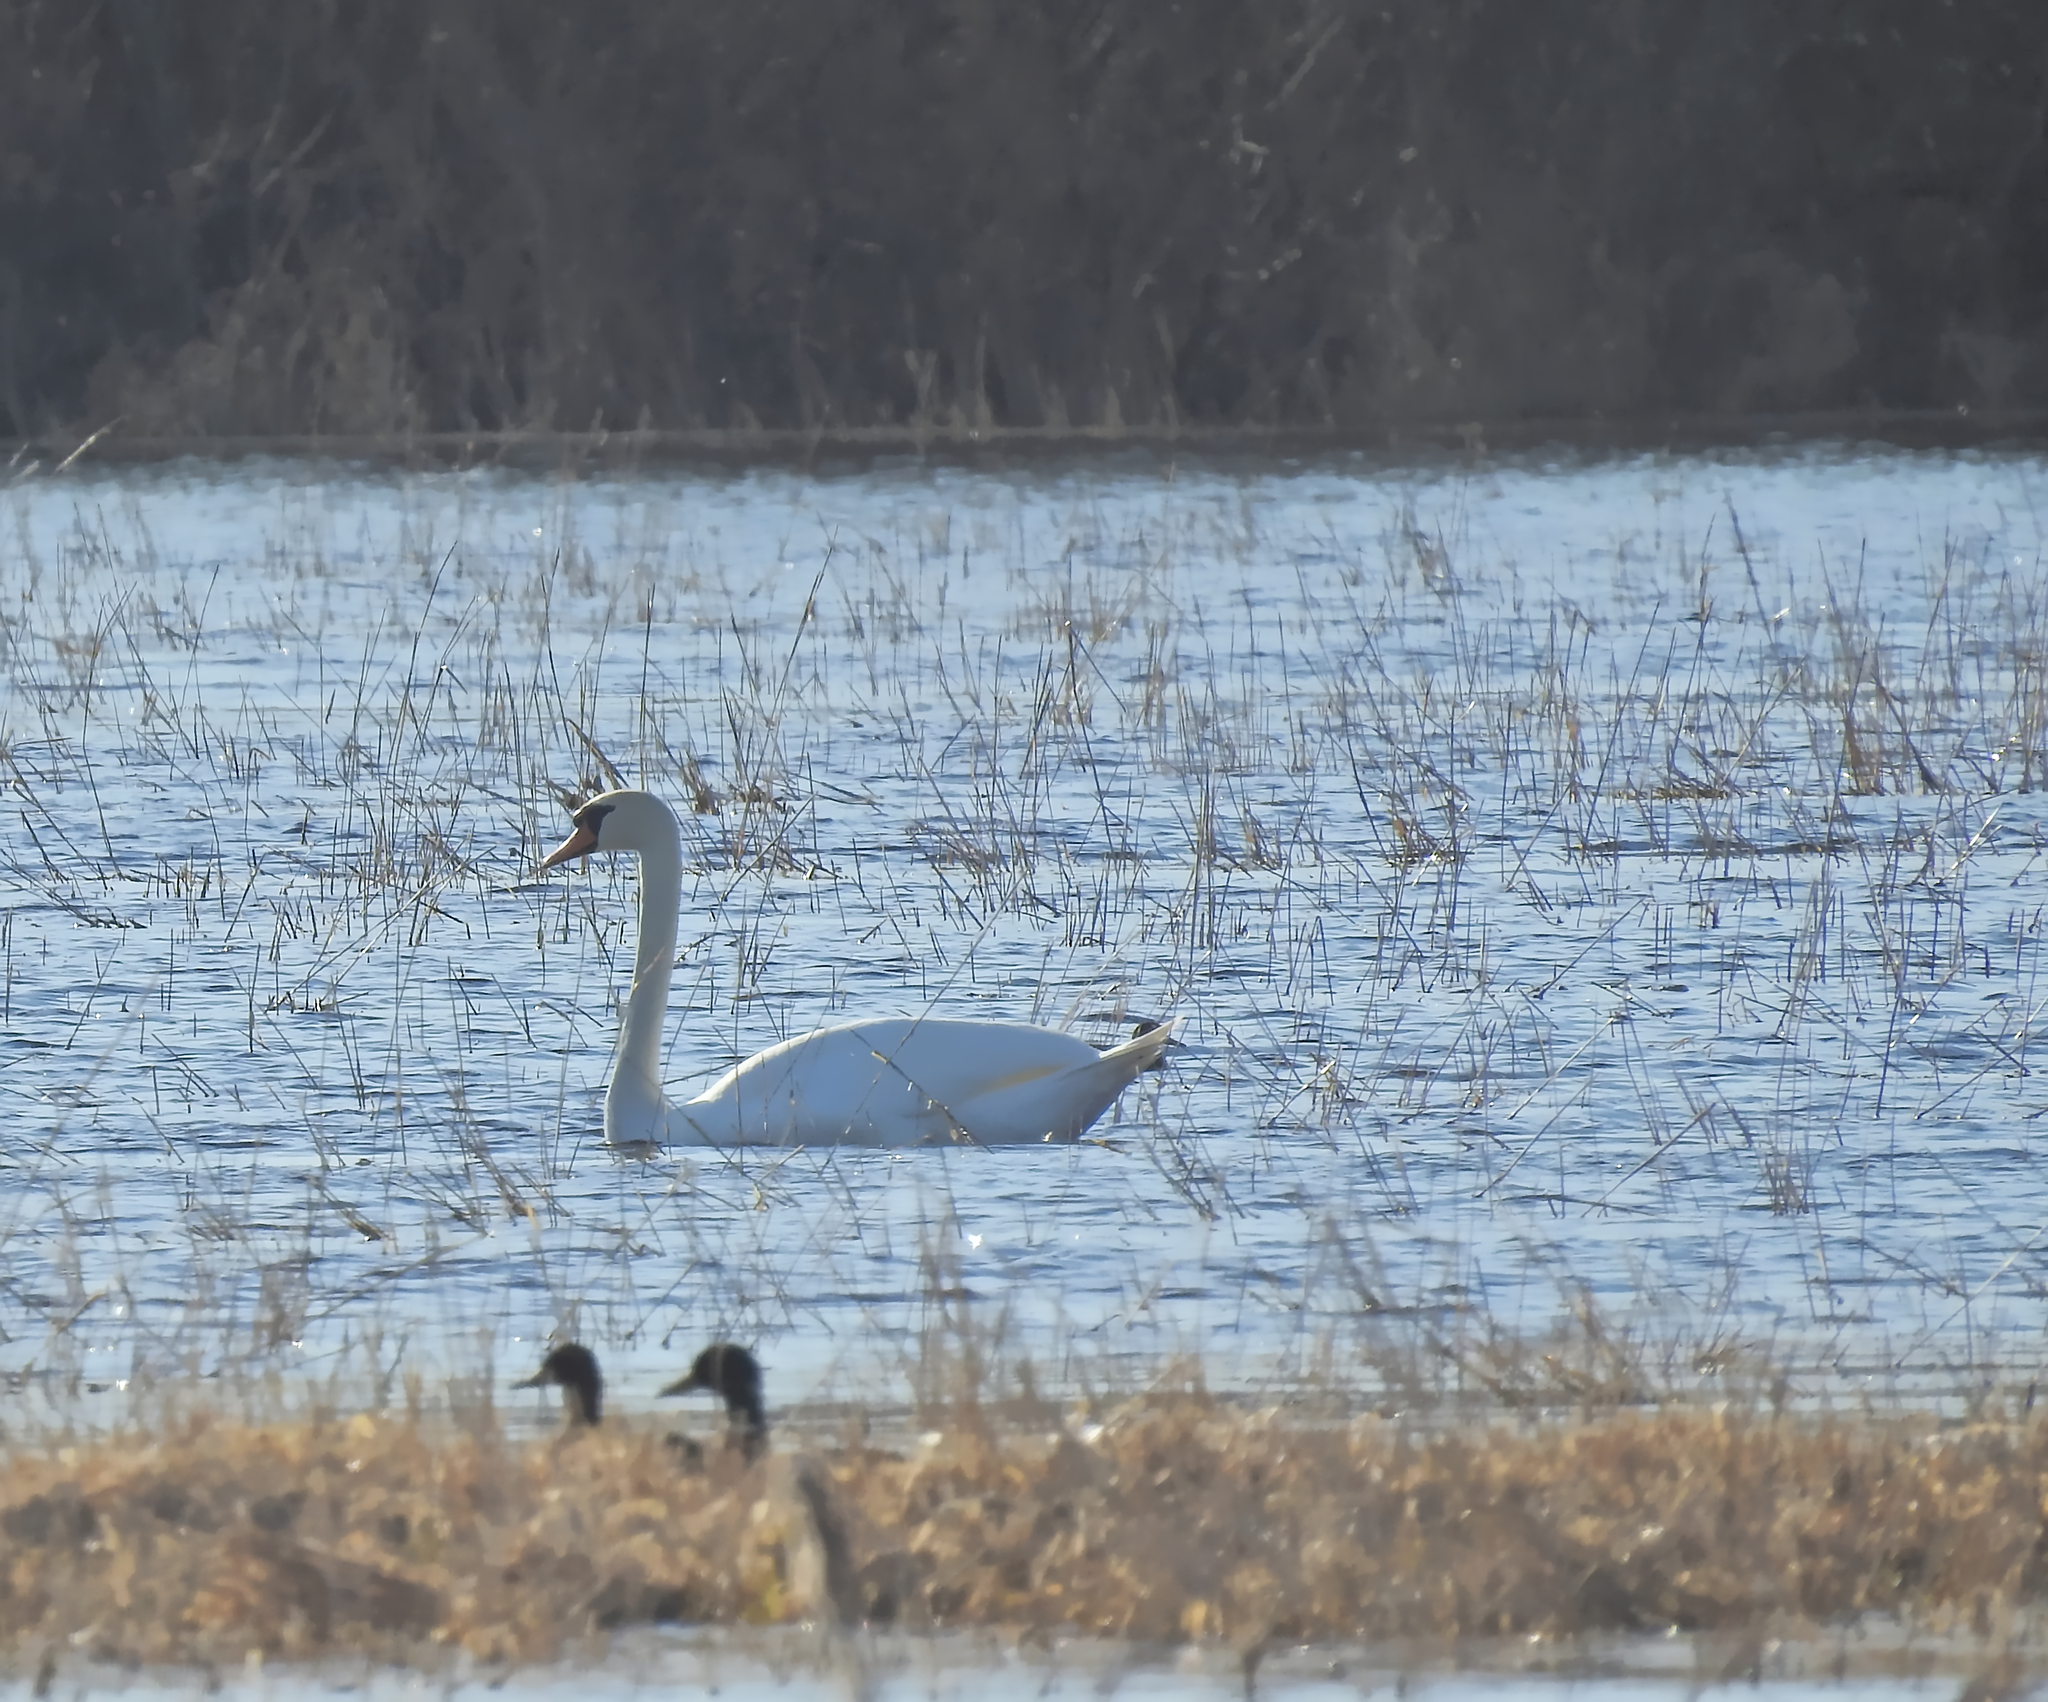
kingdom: Animalia
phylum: Chordata
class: Aves
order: Anseriformes
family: Anatidae
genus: Cygnus
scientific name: Cygnus olor
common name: Mute swan
